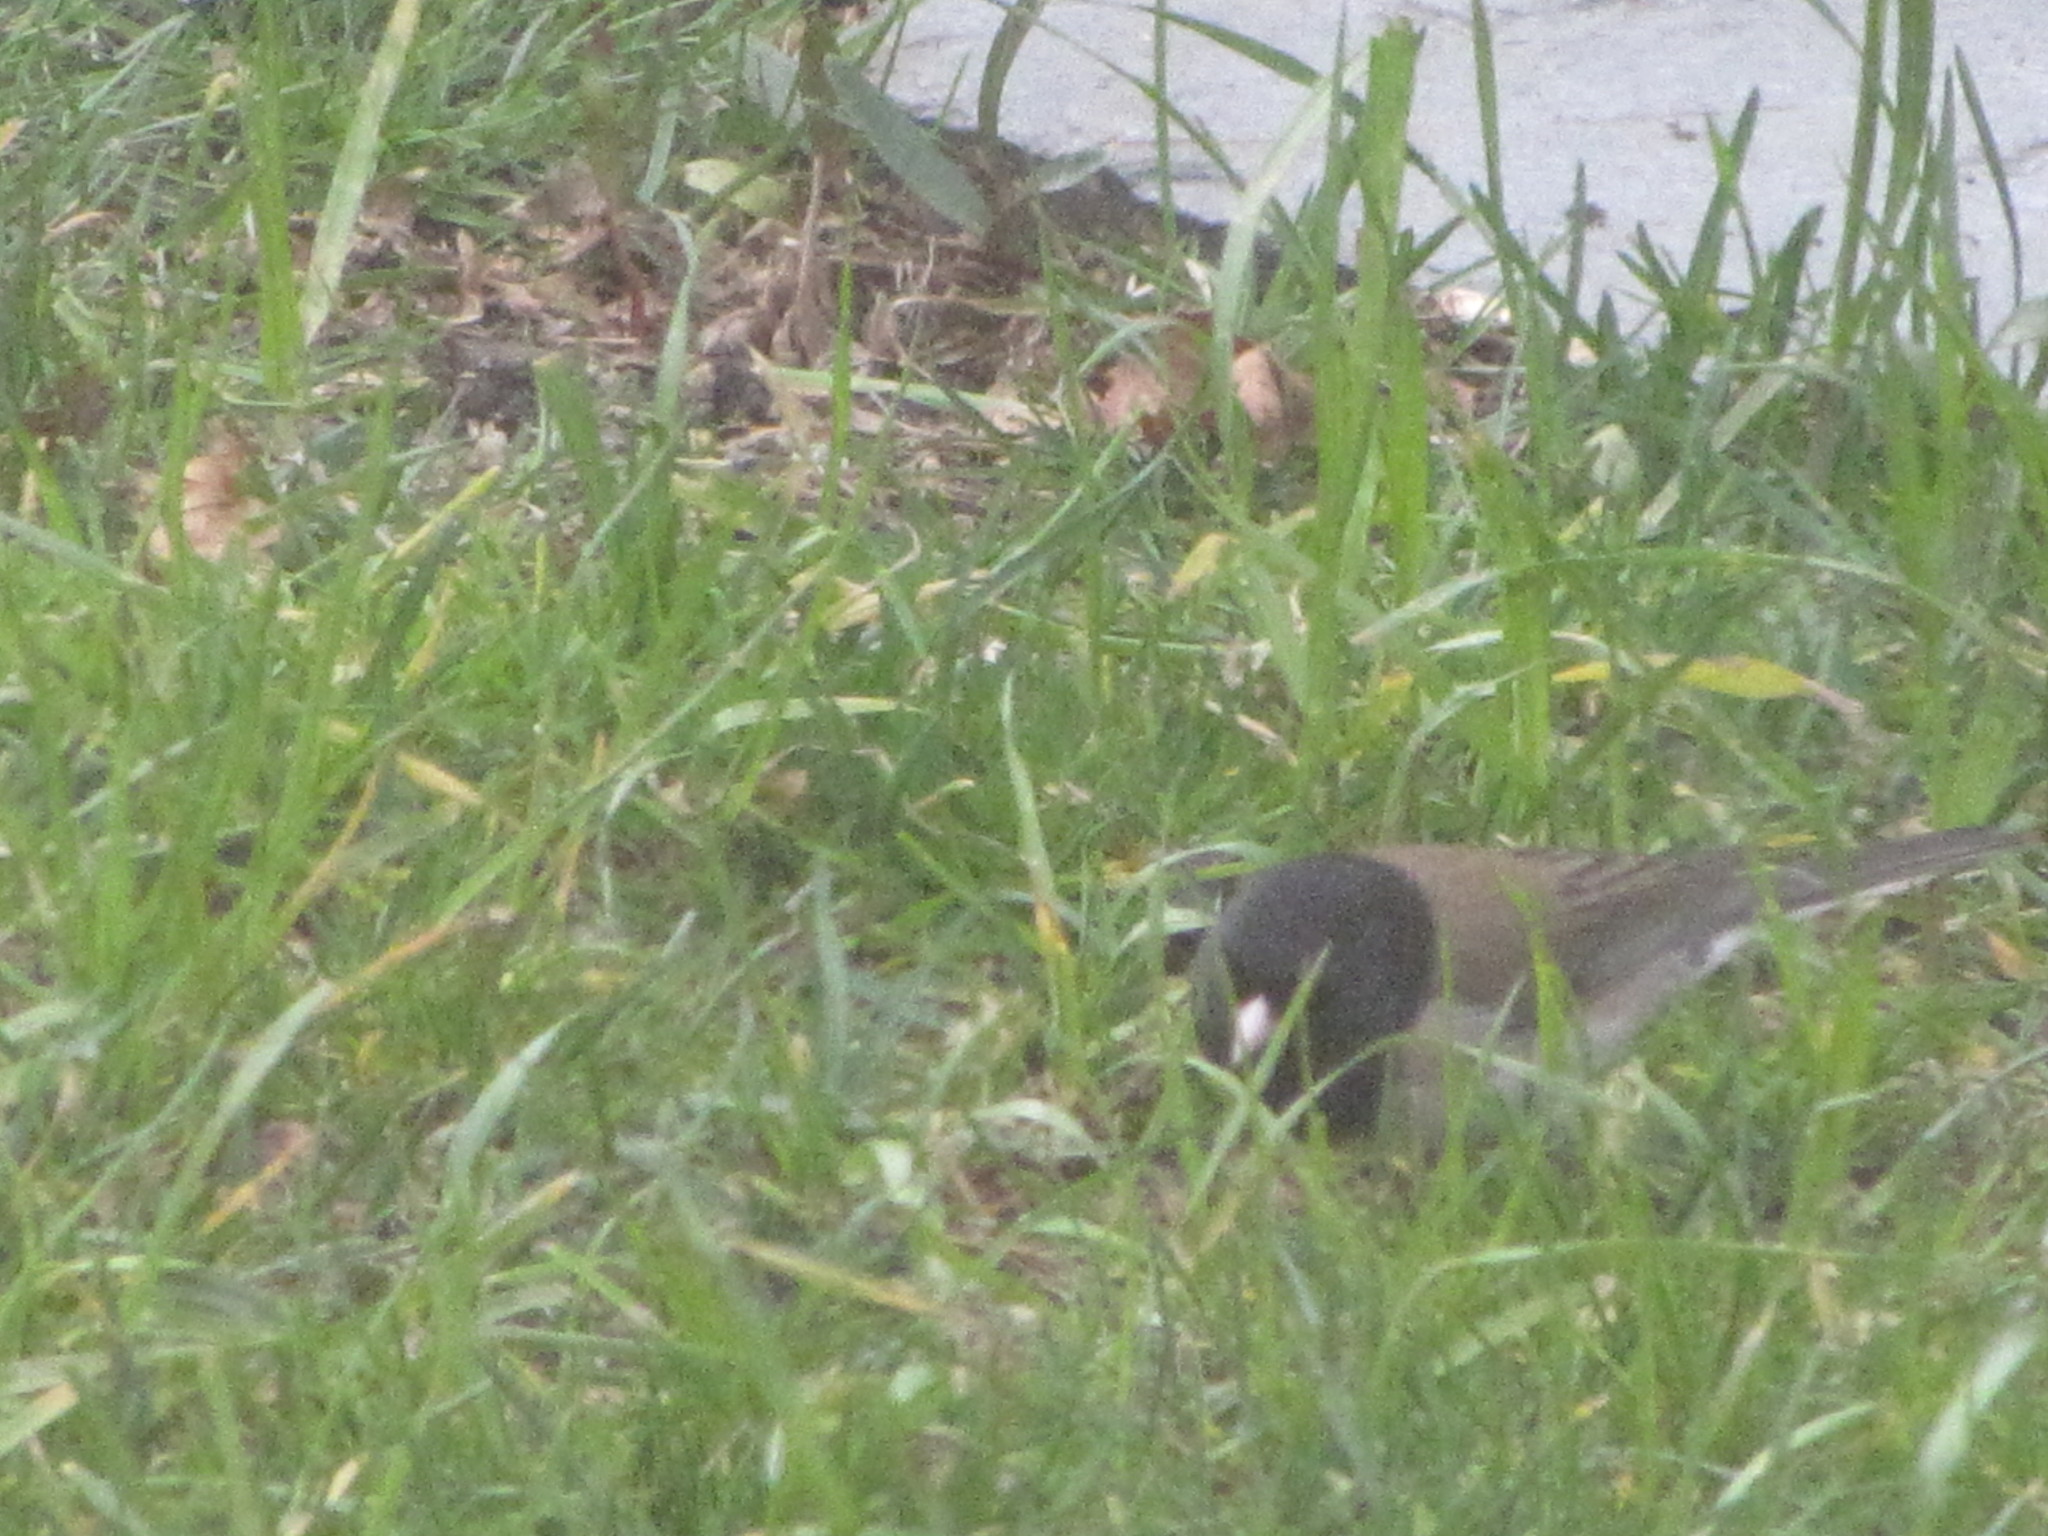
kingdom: Animalia
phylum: Chordata
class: Aves
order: Passeriformes
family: Passerellidae
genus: Junco
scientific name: Junco hyemalis
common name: Dark-eyed junco
